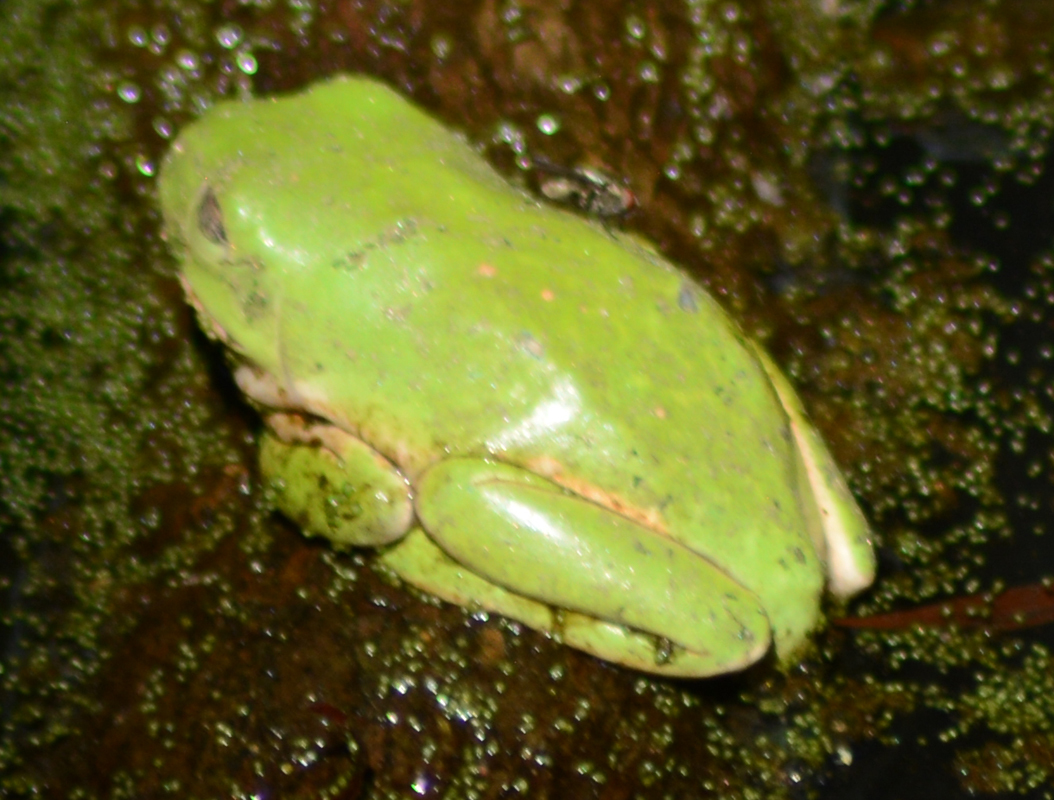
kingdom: Animalia
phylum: Chordata
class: Amphibia
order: Anura
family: Phyllomedusidae
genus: Agalychnis
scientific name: Agalychnis dacnicolor
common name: Mexican giant tree frog
